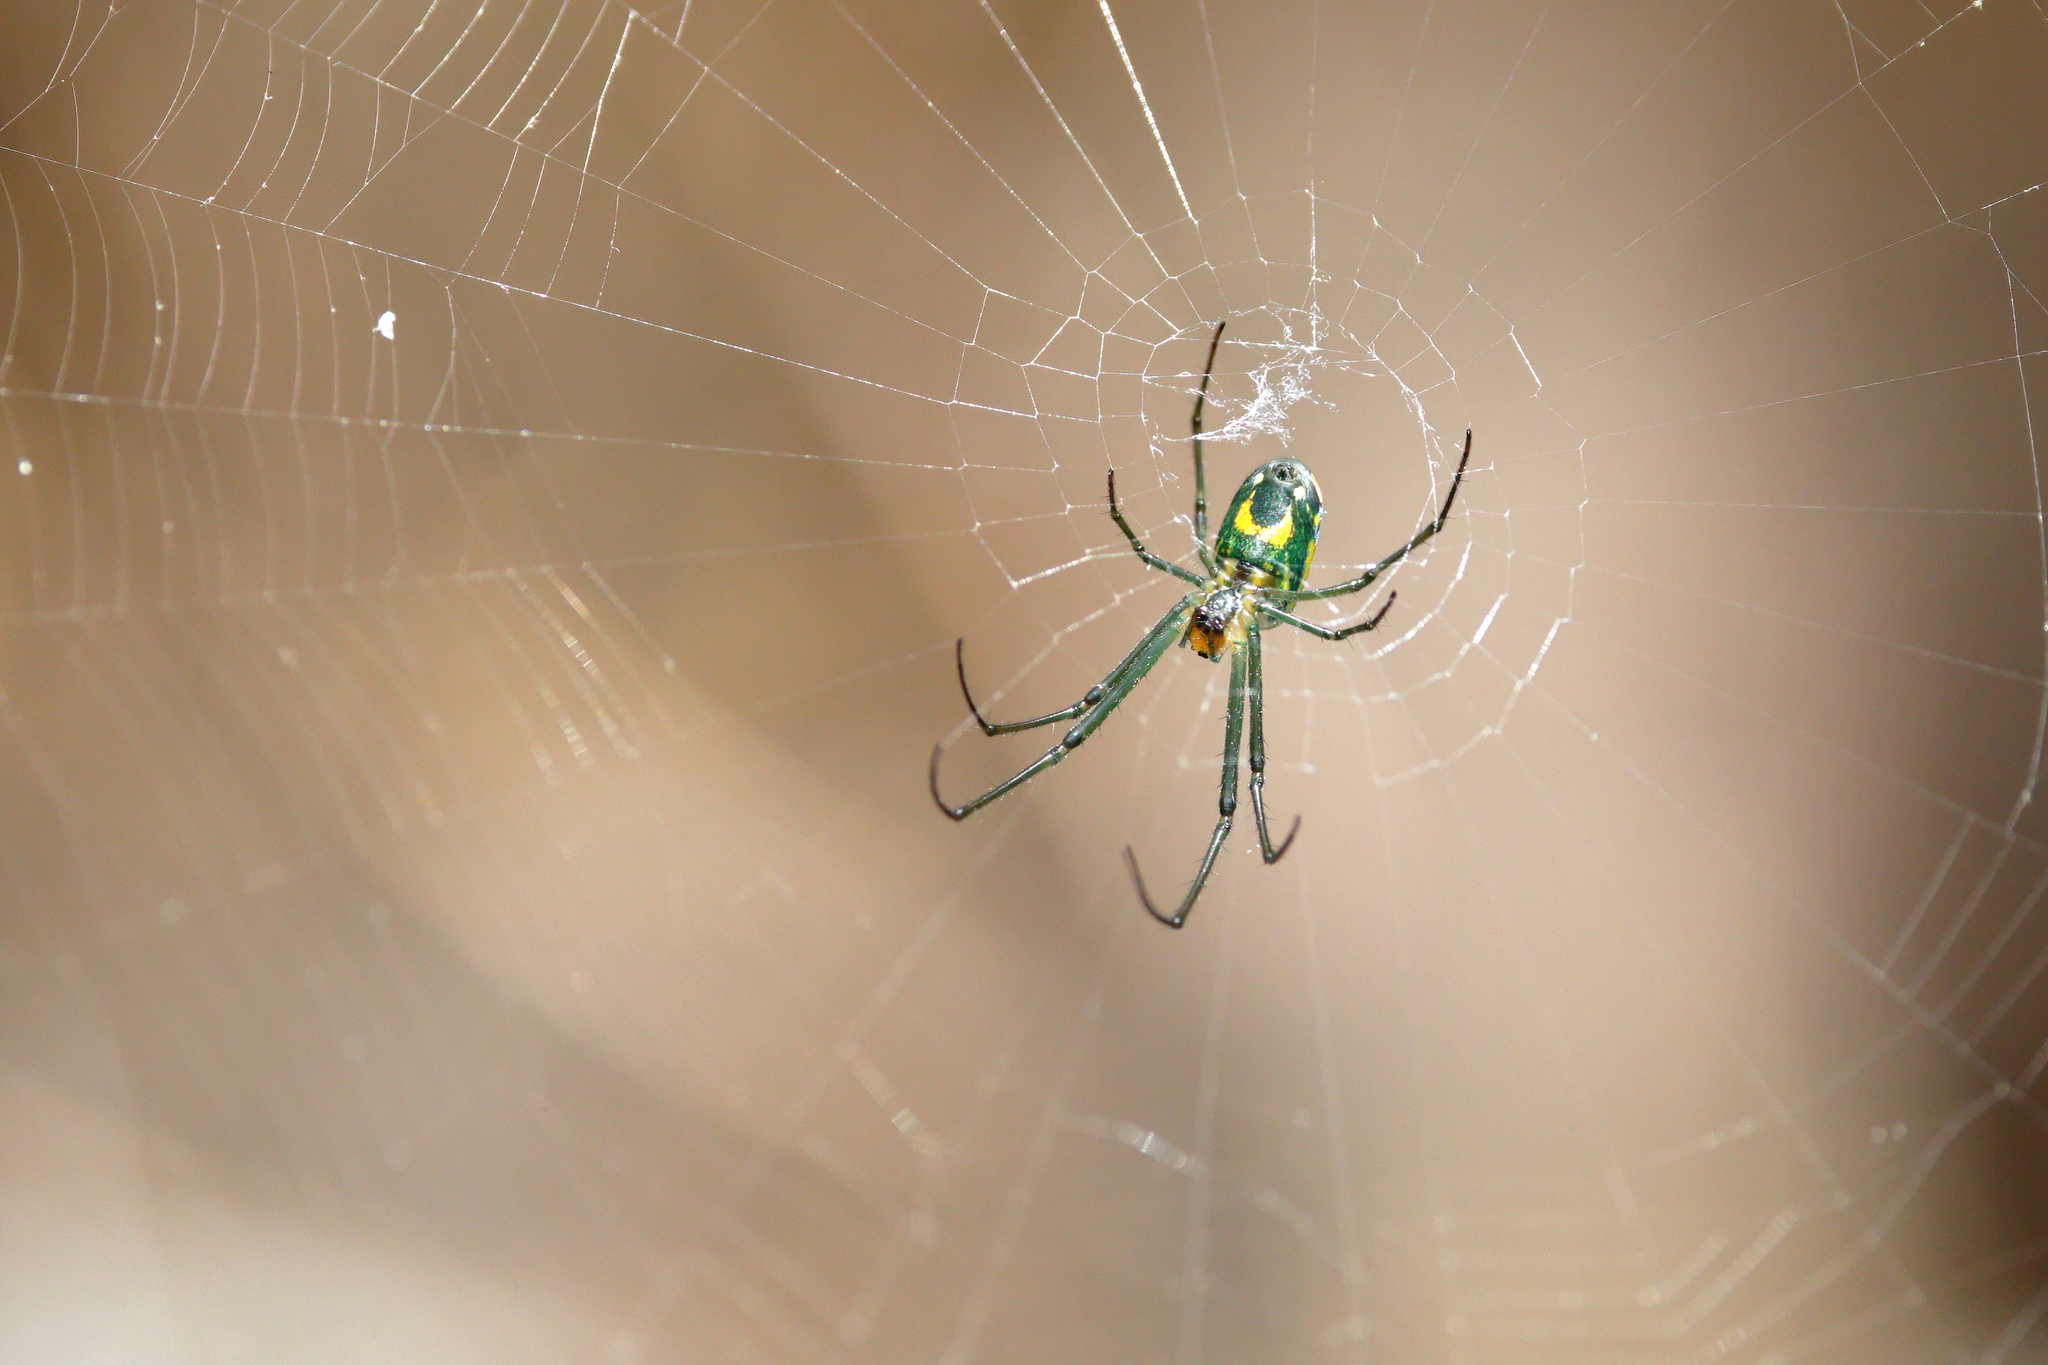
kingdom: Animalia
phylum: Arthropoda
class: Arachnida
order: Araneae
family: Tetragnathidae
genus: Leucauge
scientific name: Leucauge argyrobapta
